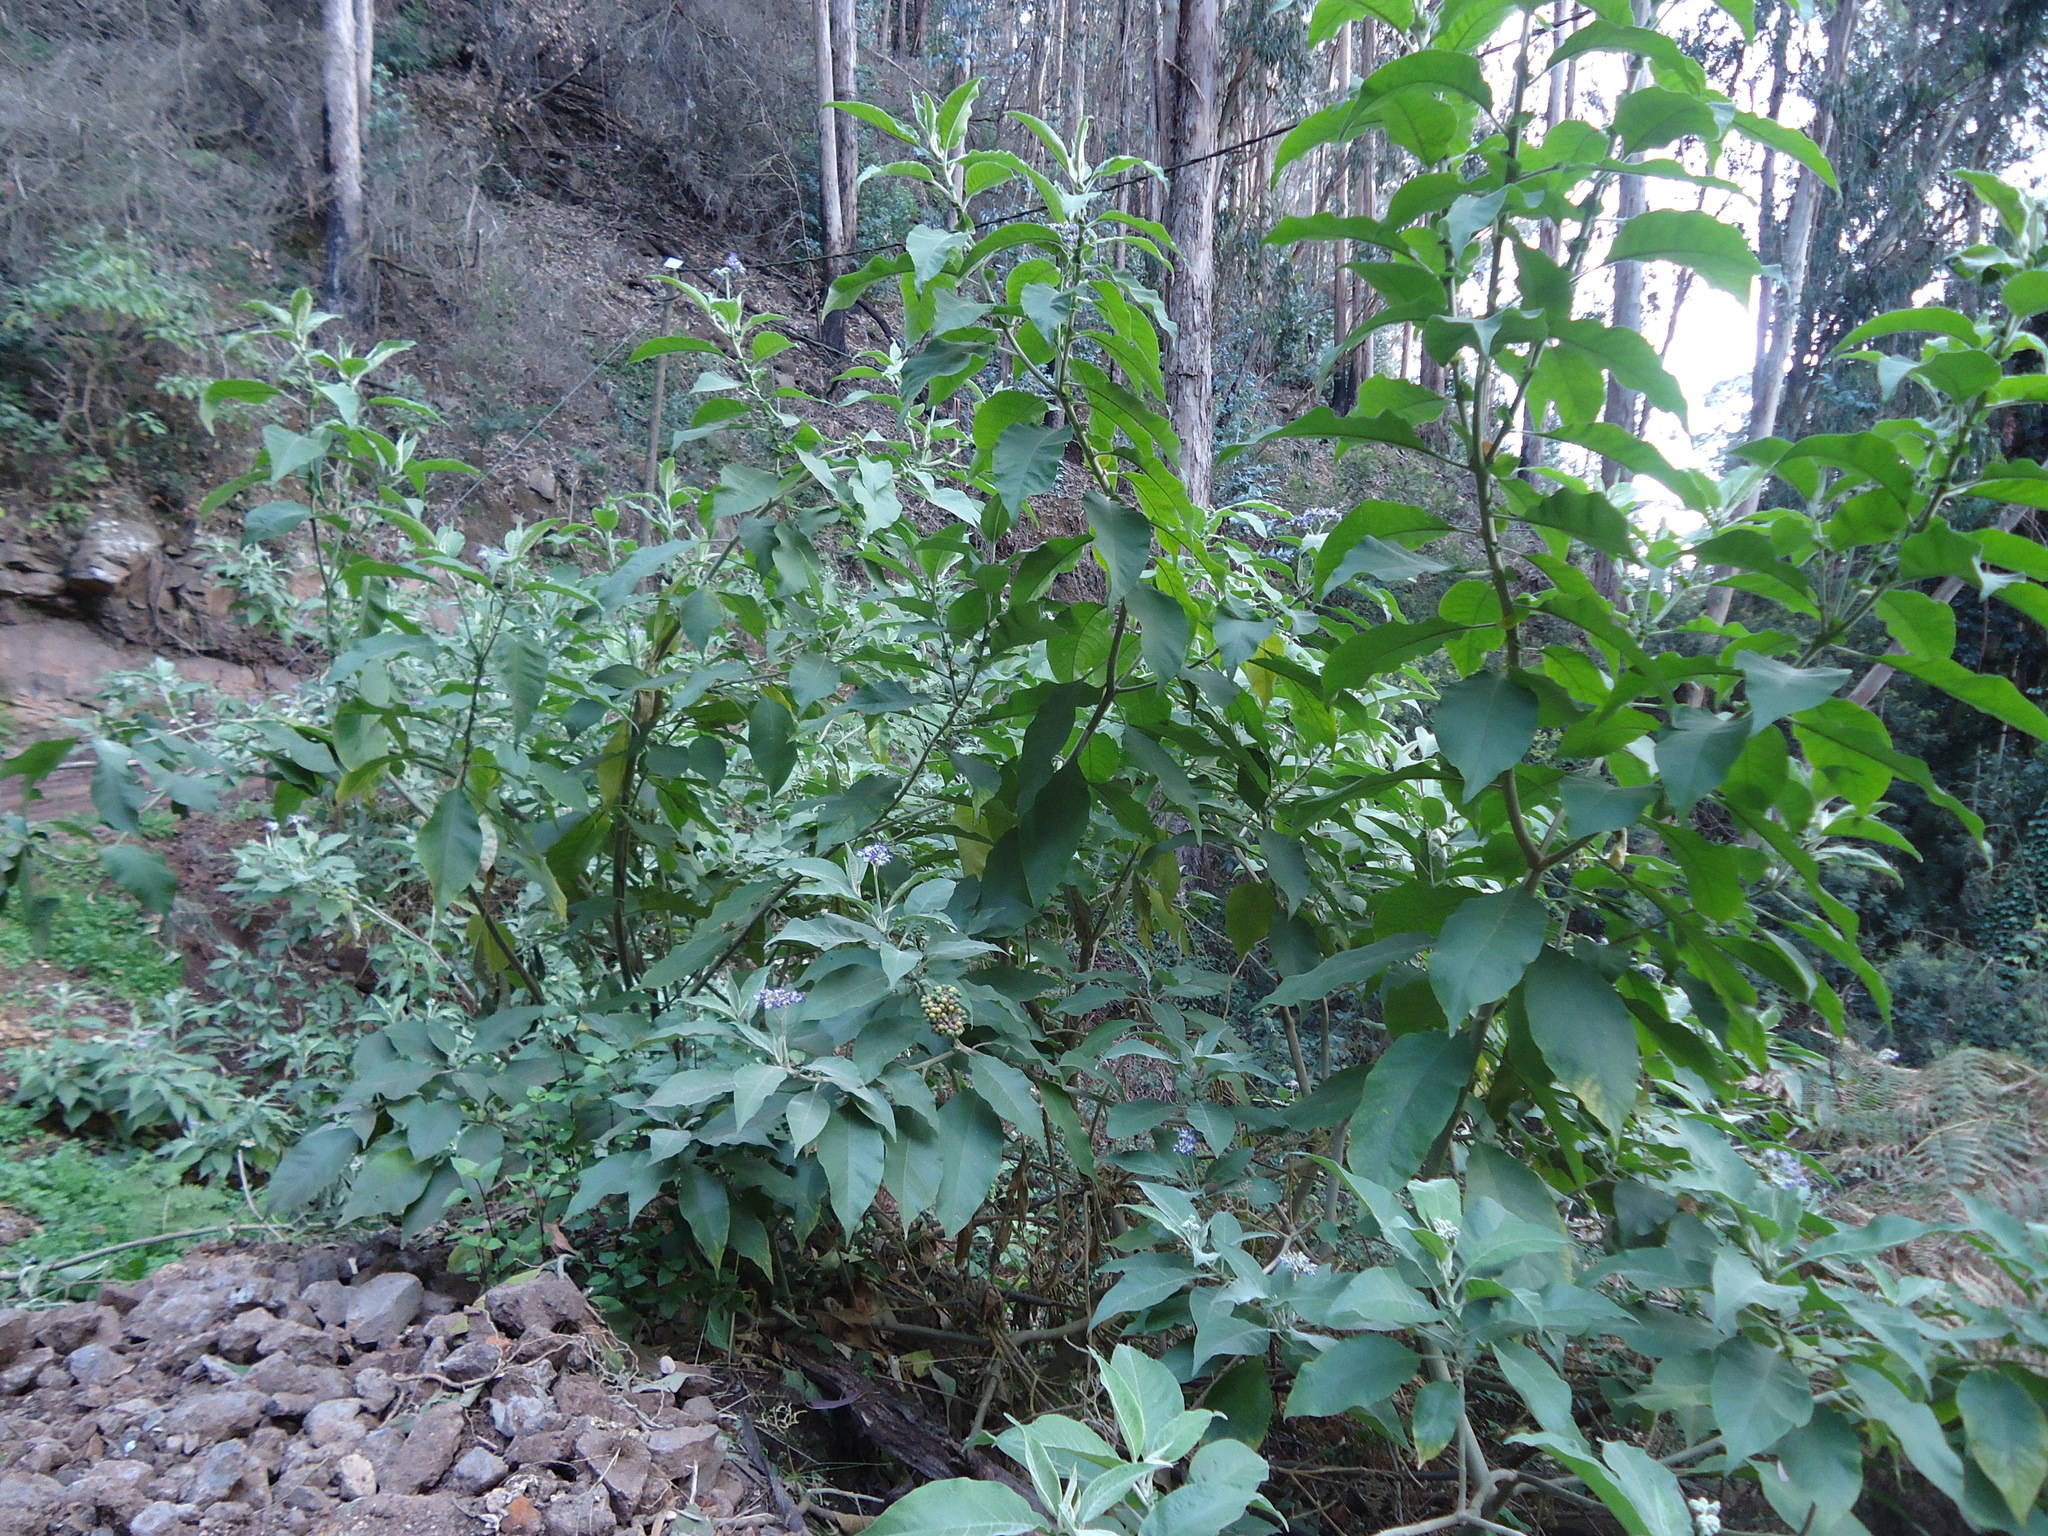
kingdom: Plantae
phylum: Tracheophyta
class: Magnoliopsida
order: Solanales
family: Solanaceae
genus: Solanum
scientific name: Solanum mauritianum
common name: Earleaf nightshade
